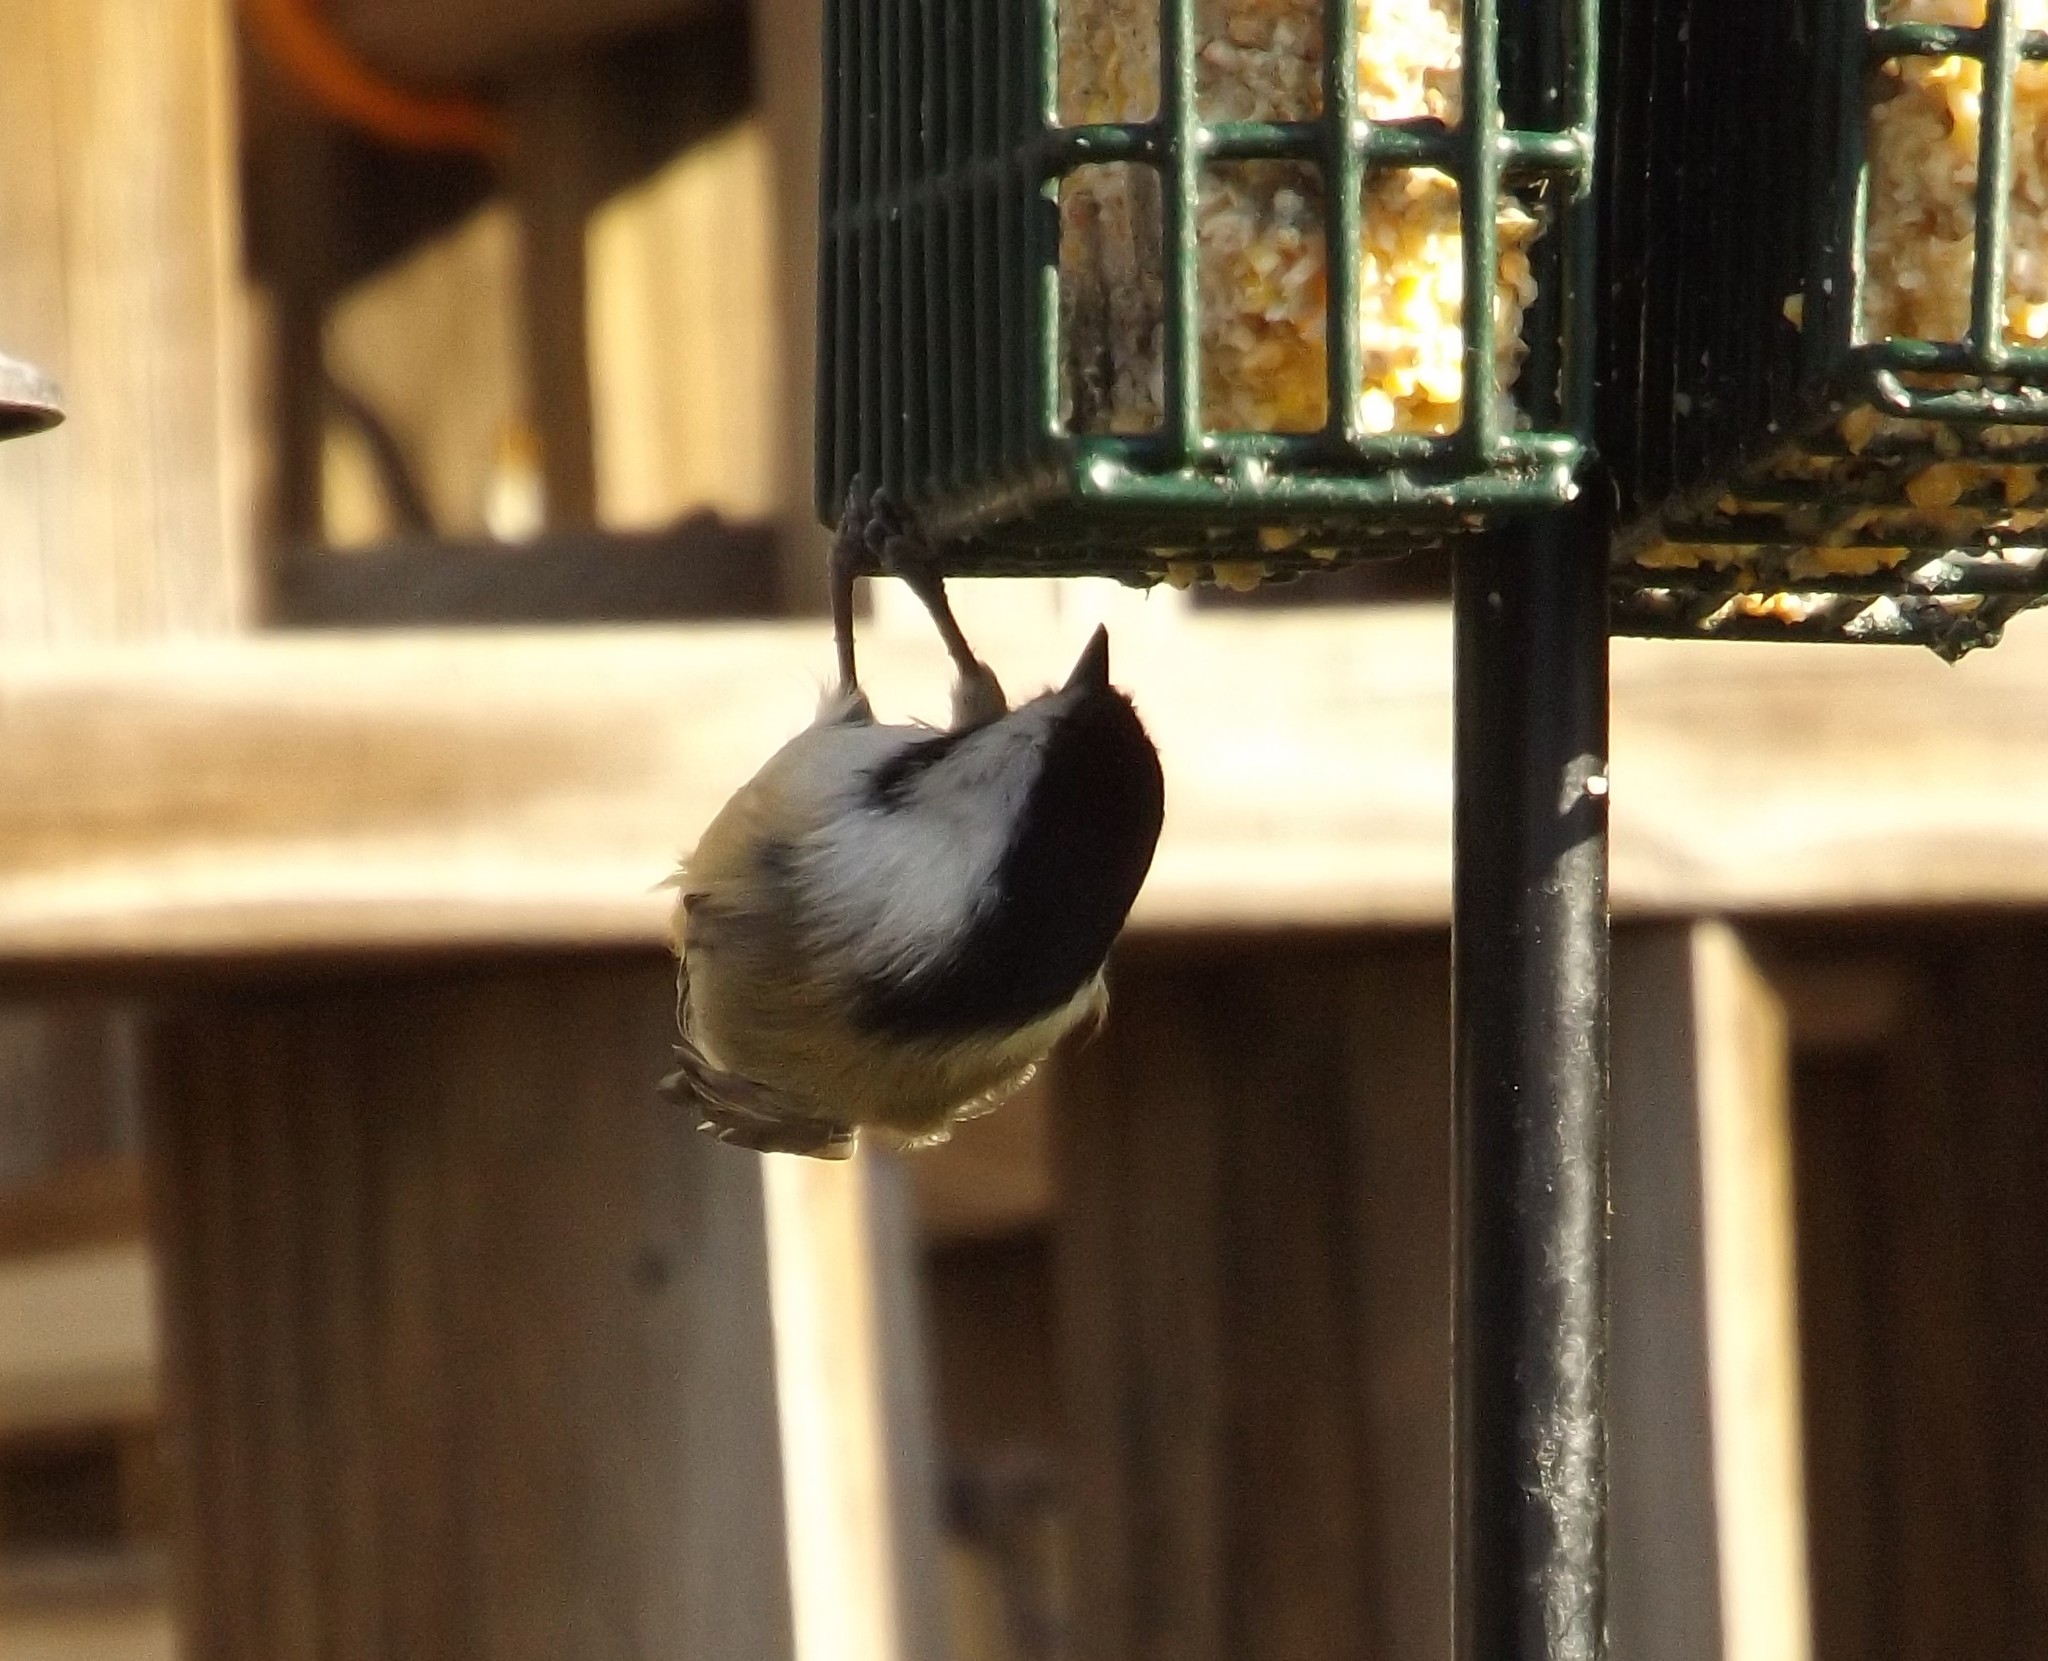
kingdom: Animalia
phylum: Chordata
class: Aves
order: Passeriformes
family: Paridae
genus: Poecile
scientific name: Poecile atricapillus
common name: Black-capped chickadee
